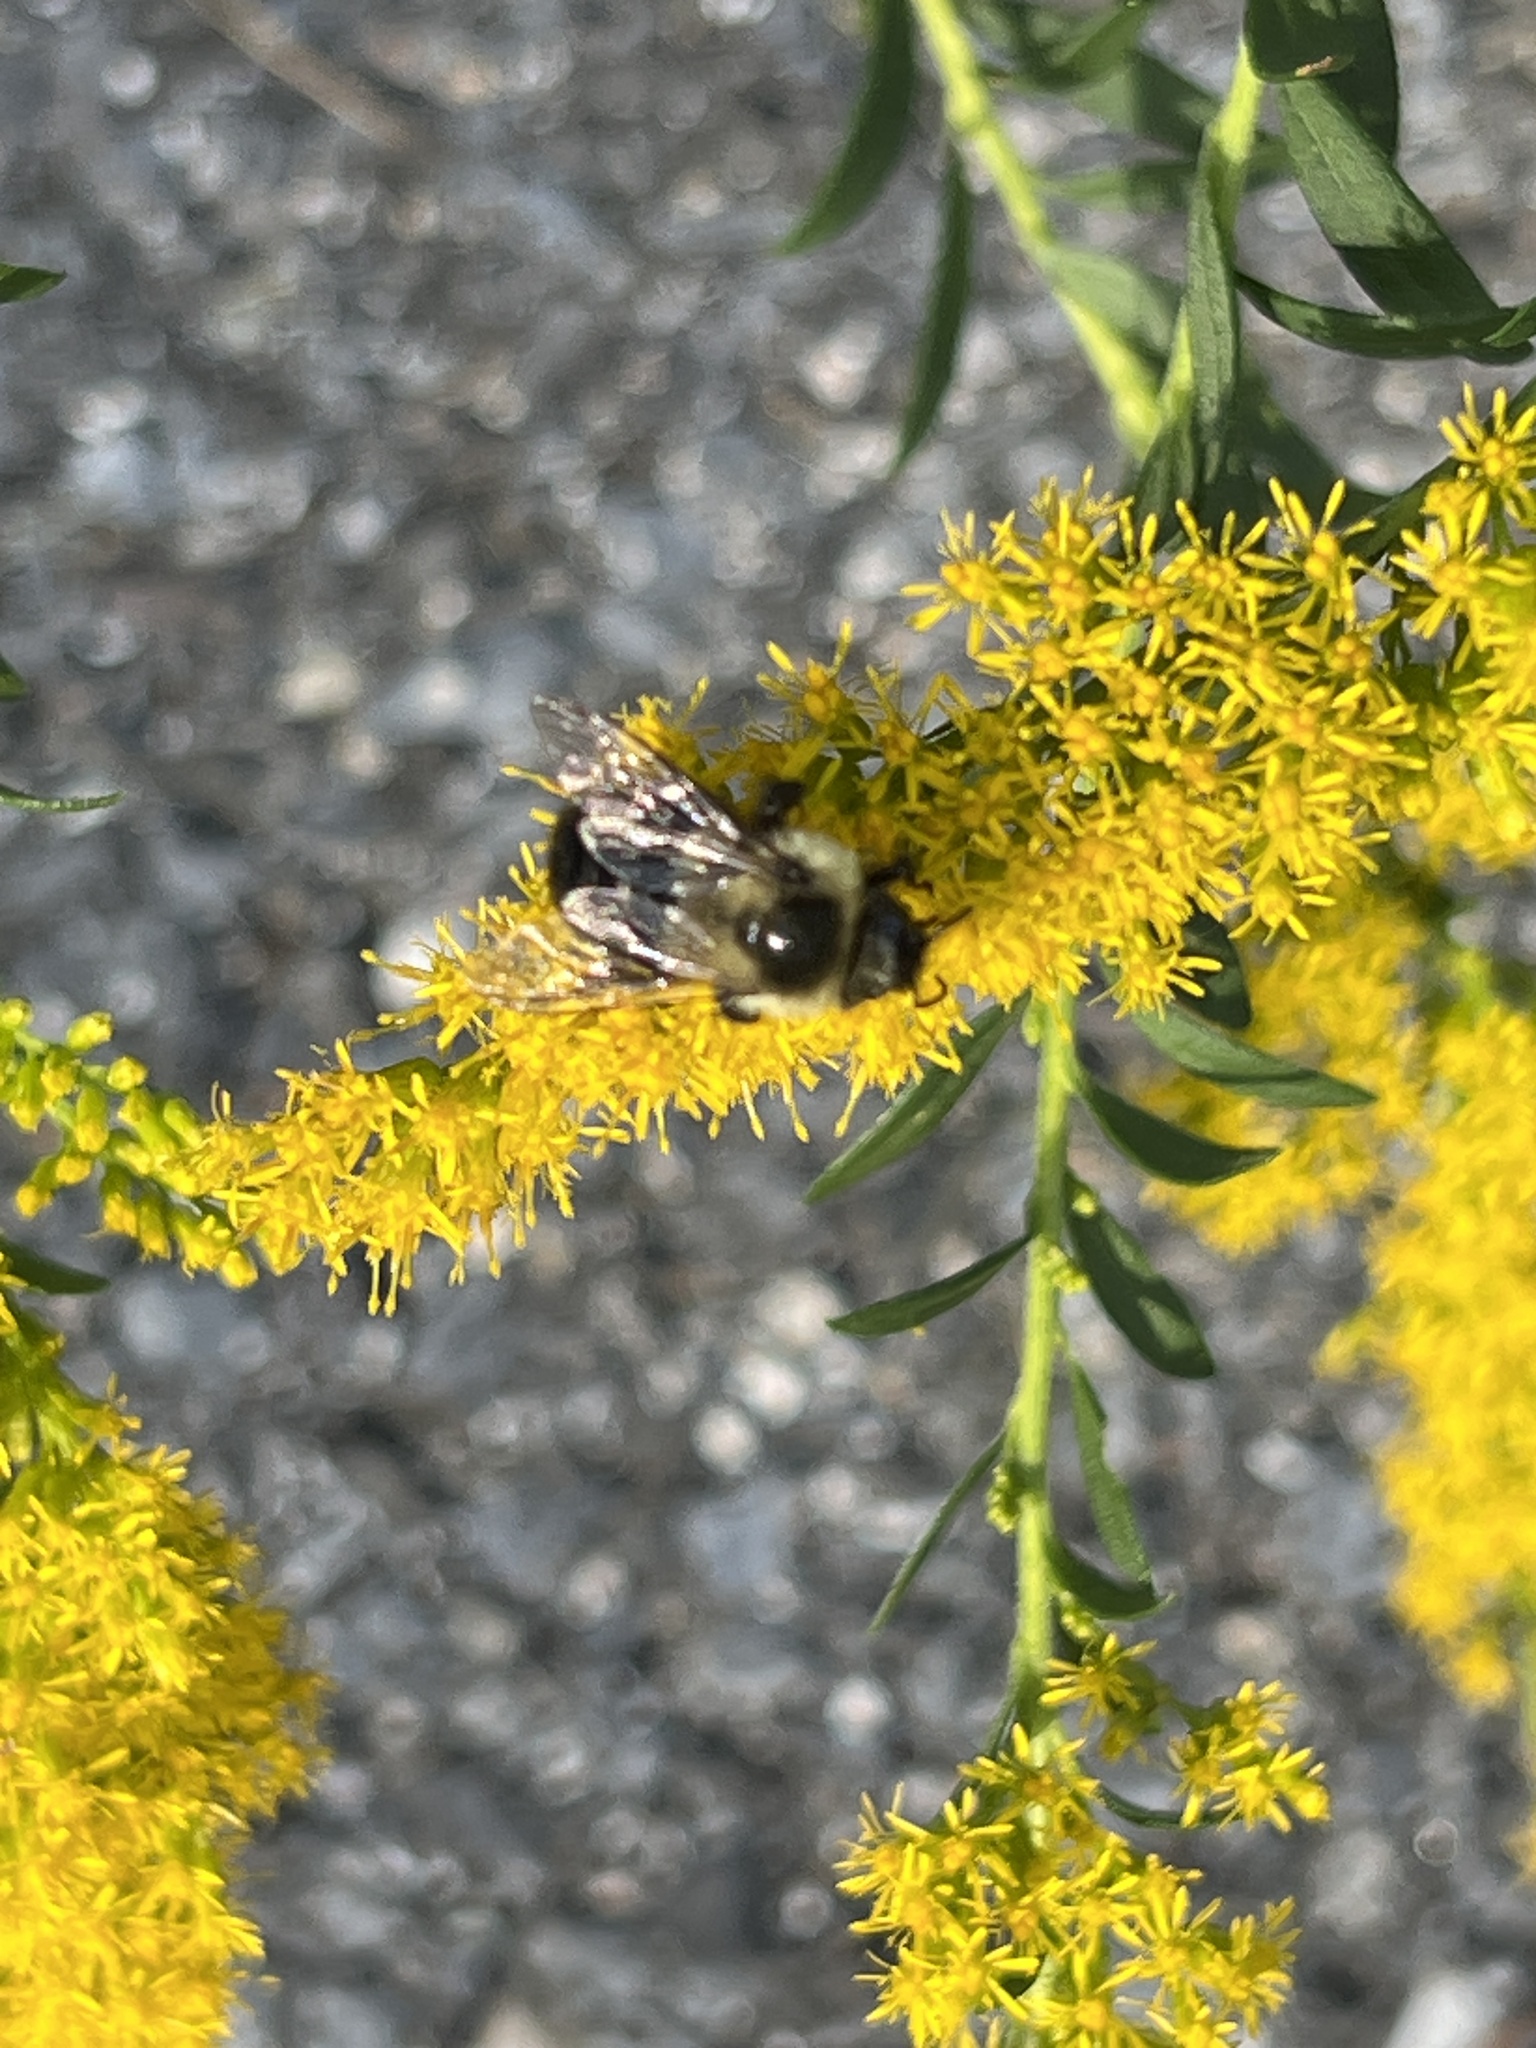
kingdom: Animalia
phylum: Arthropoda
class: Insecta
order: Hymenoptera
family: Apidae
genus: Bombus
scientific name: Bombus impatiens
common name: Common eastern bumble bee
